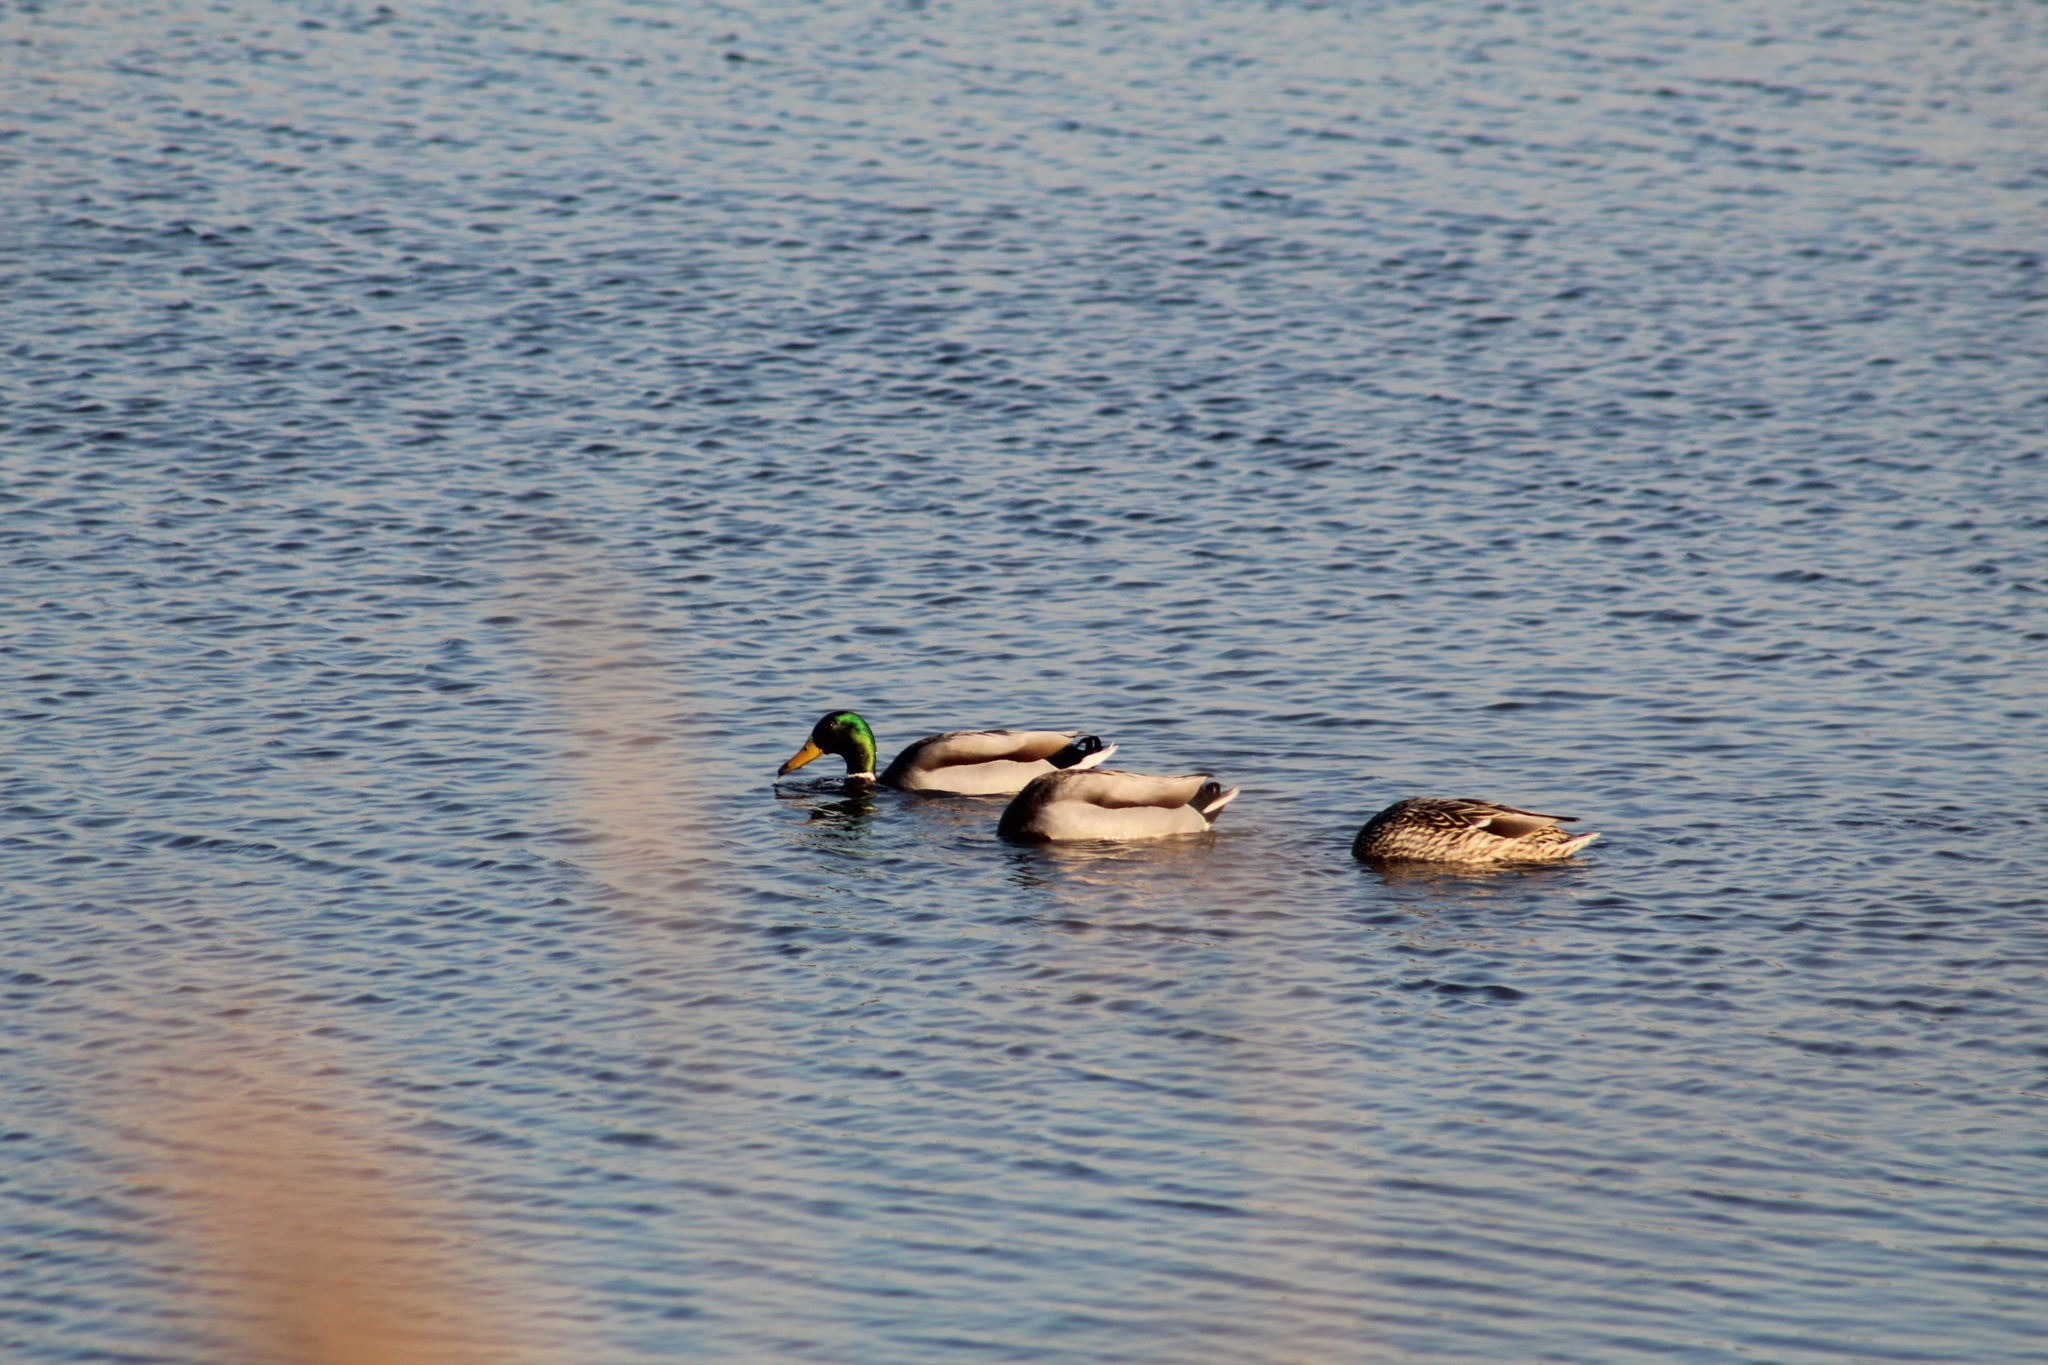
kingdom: Animalia
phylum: Chordata
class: Aves
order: Anseriformes
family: Anatidae
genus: Anas
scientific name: Anas platyrhynchos
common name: Mallard
